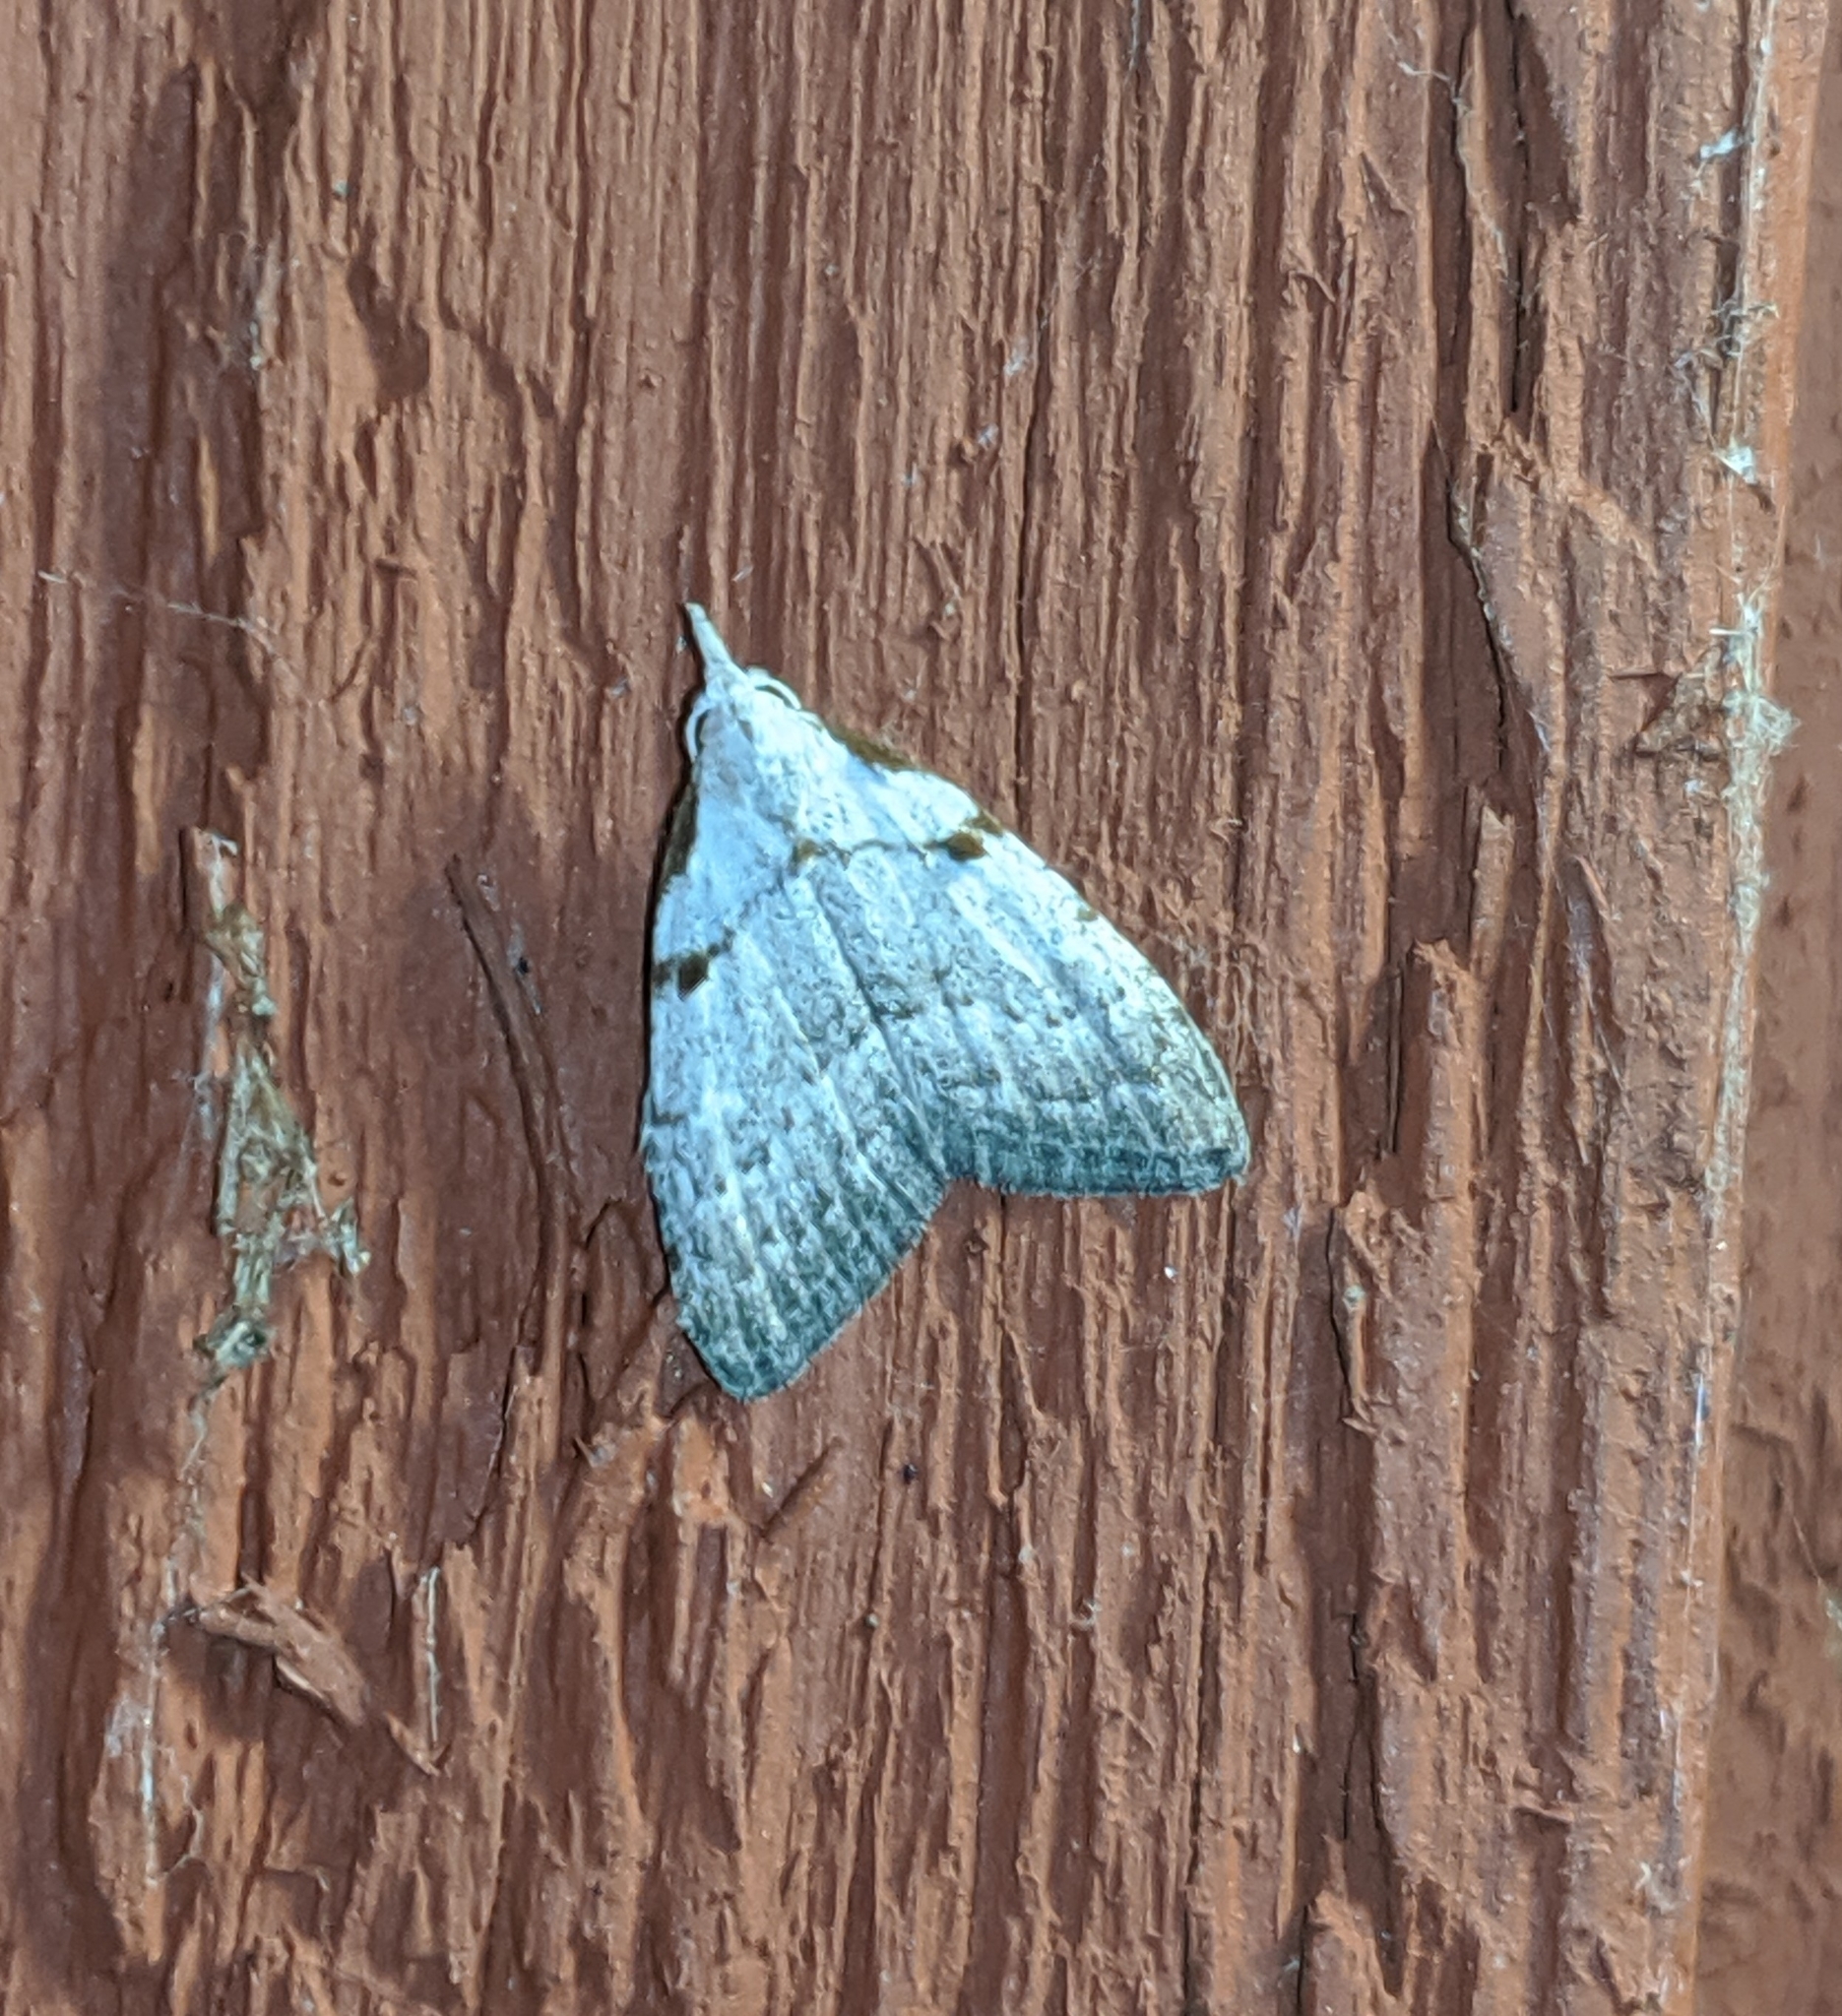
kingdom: Animalia
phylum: Arthropoda
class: Insecta
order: Lepidoptera
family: Nolidae
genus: Nola
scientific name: Nola minna
